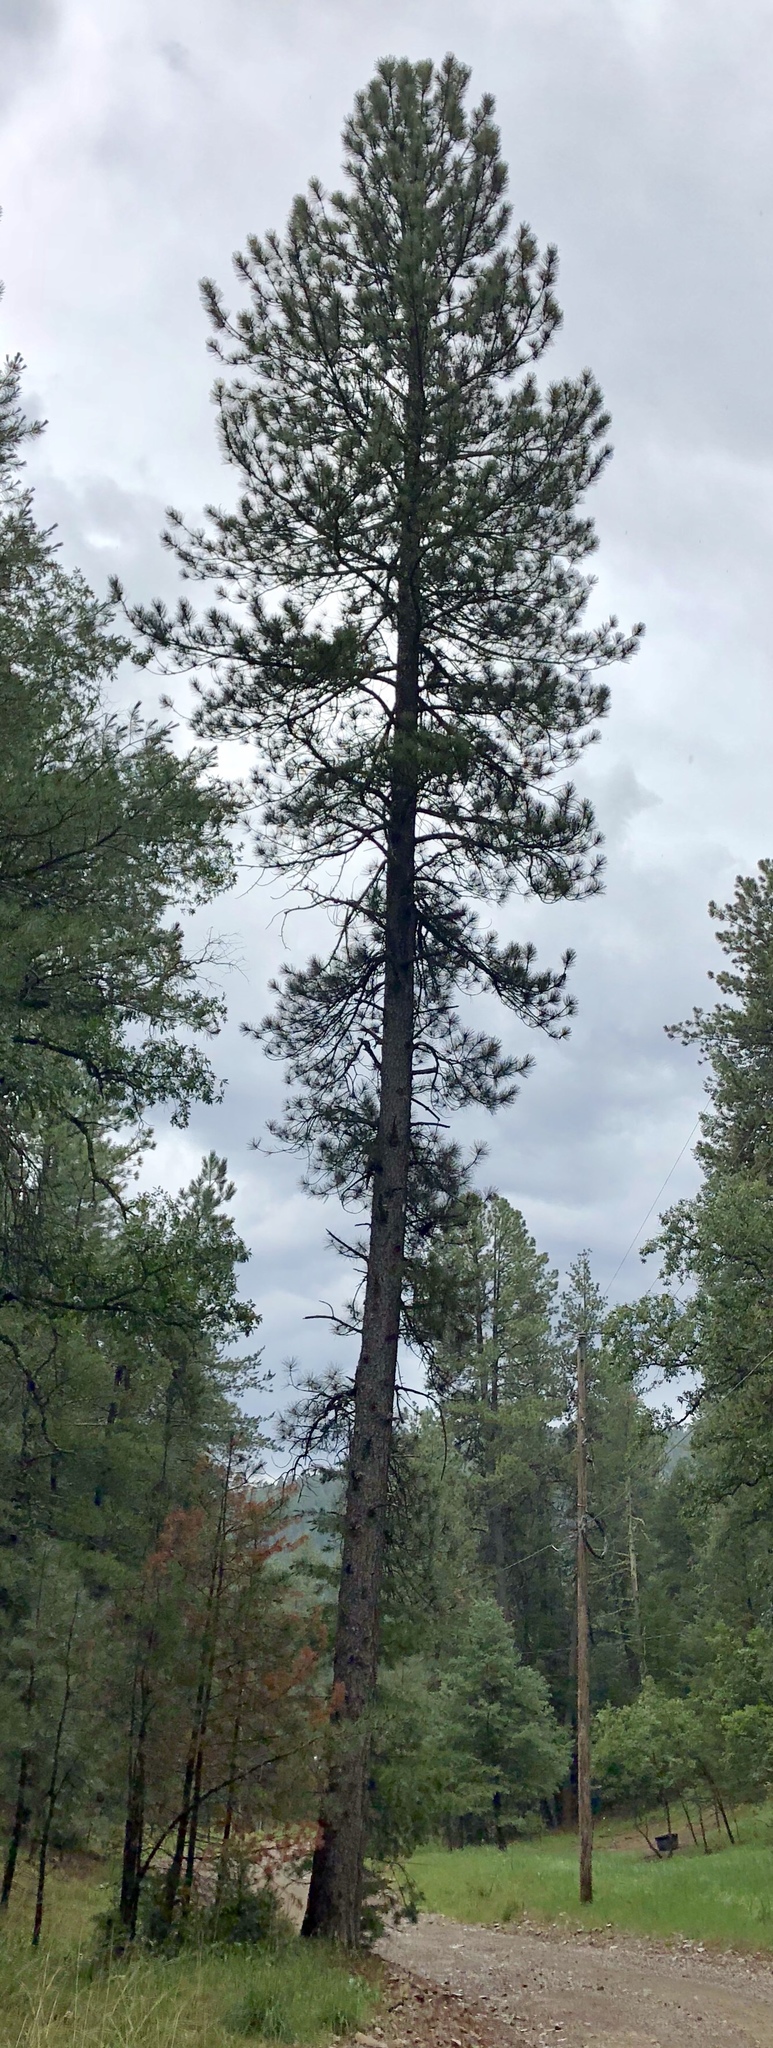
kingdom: Plantae
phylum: Tracheophyta
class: Pinopsida
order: Pinales
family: Pinaceae
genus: Pinus
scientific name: Pinus ponderosa
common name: Western yellow-pine
